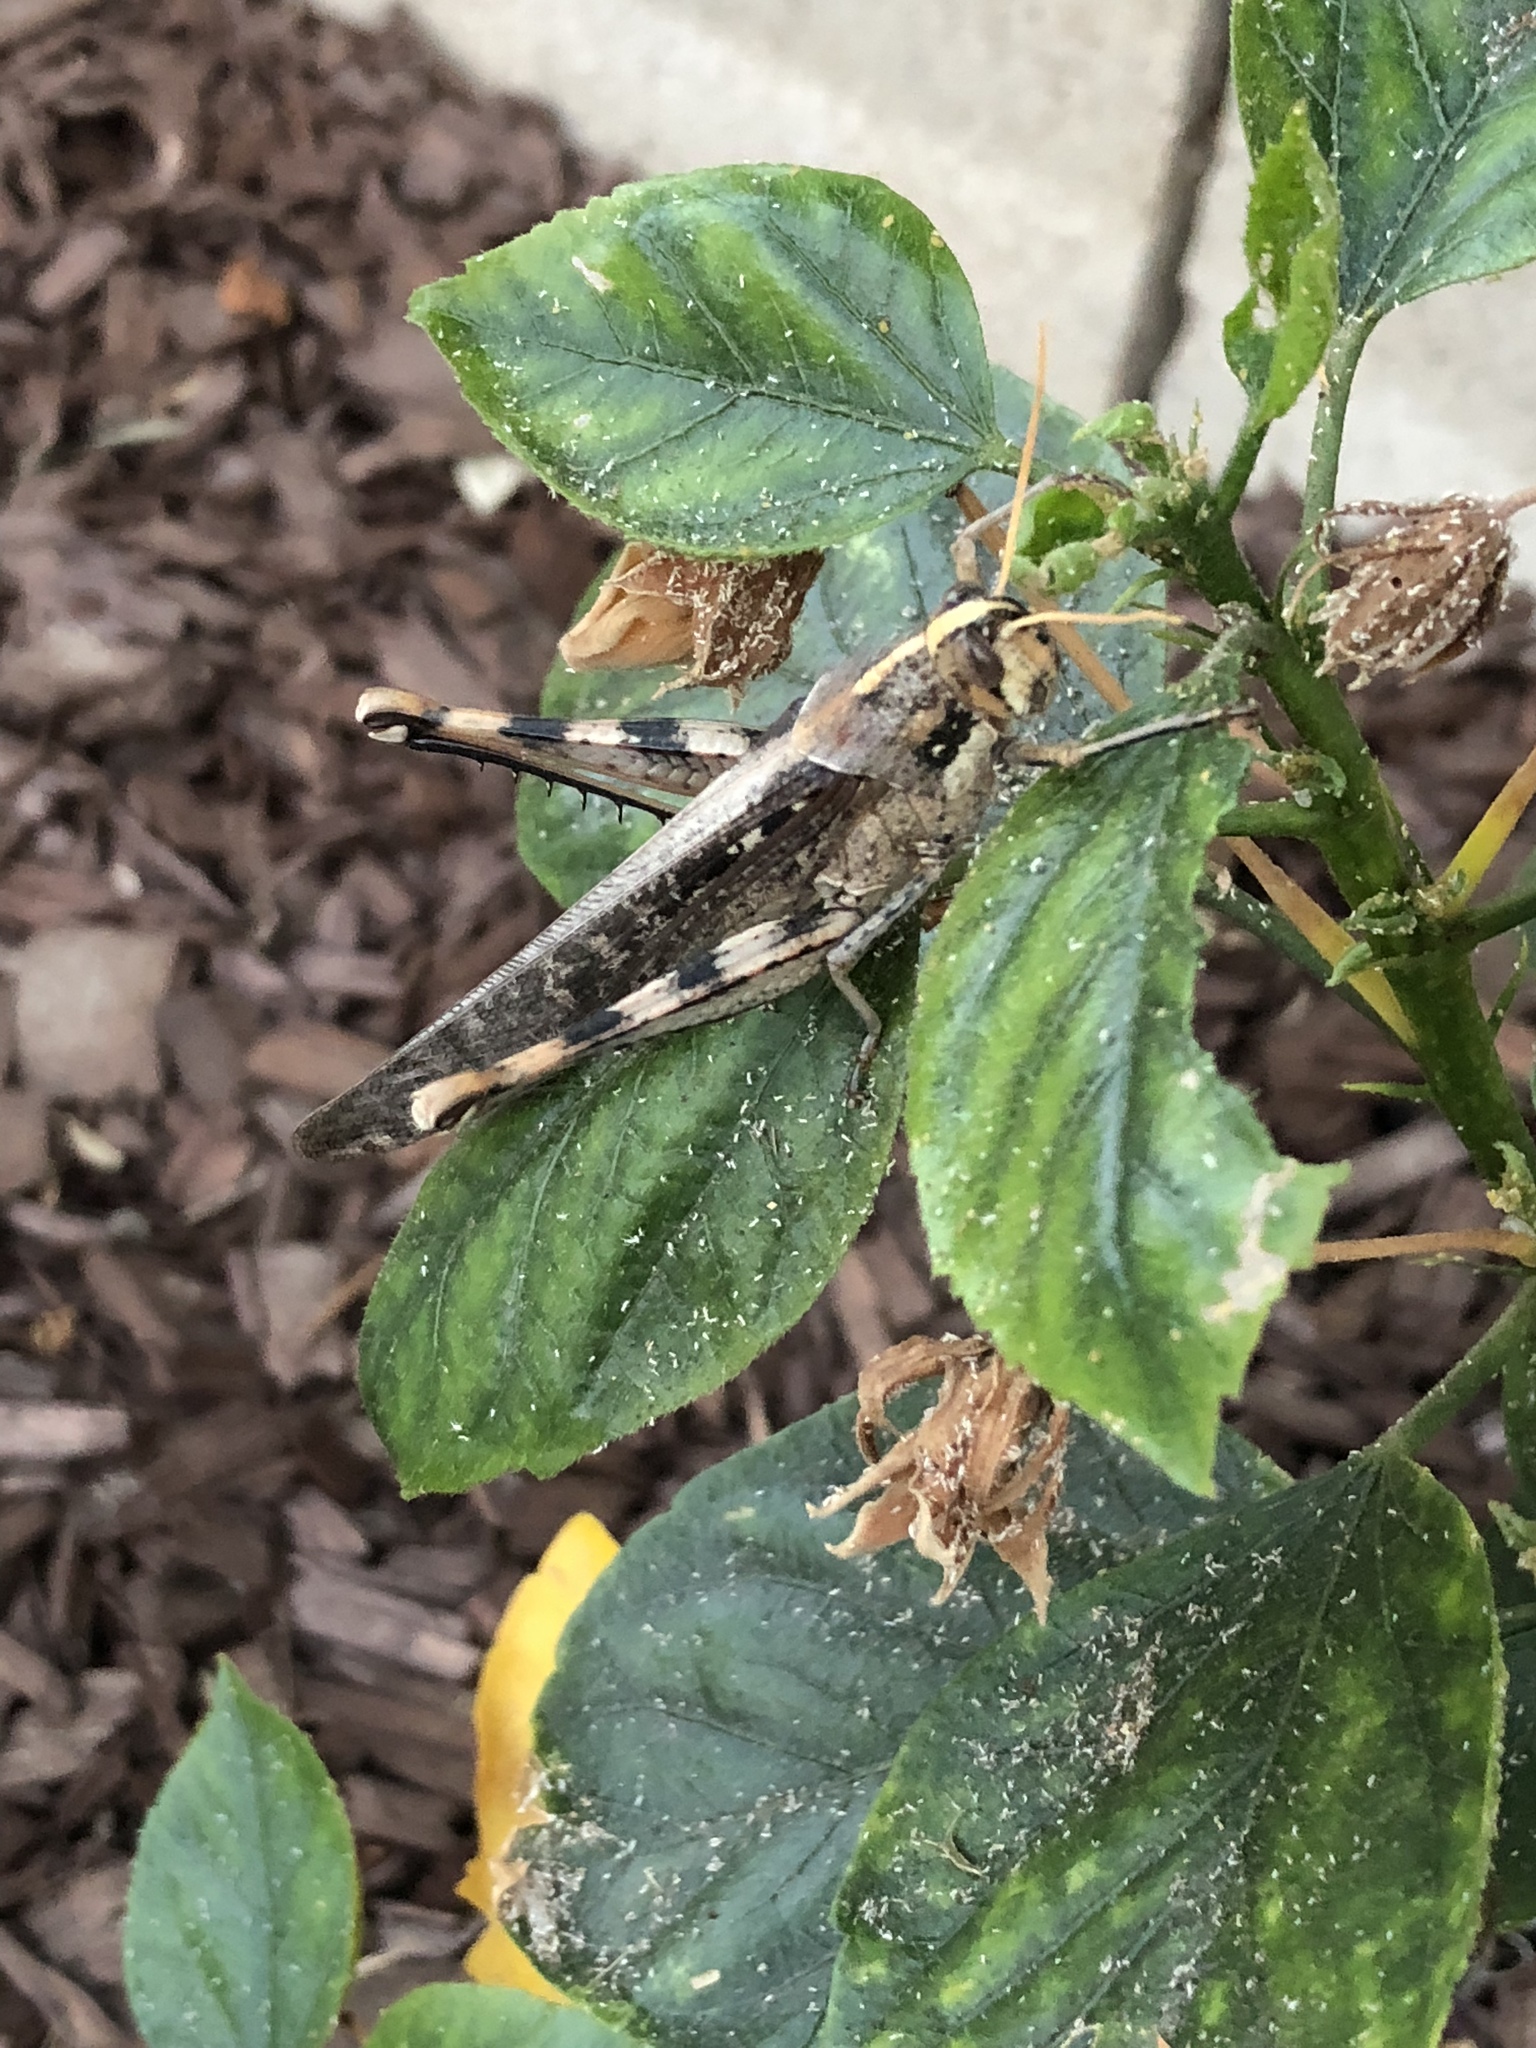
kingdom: Animalia
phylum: Arthropoda
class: Insecta
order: Orthoptera
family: Acrididae
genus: Schistocerca
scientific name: Schistocerca nitens
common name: Vagrant grasshopper
